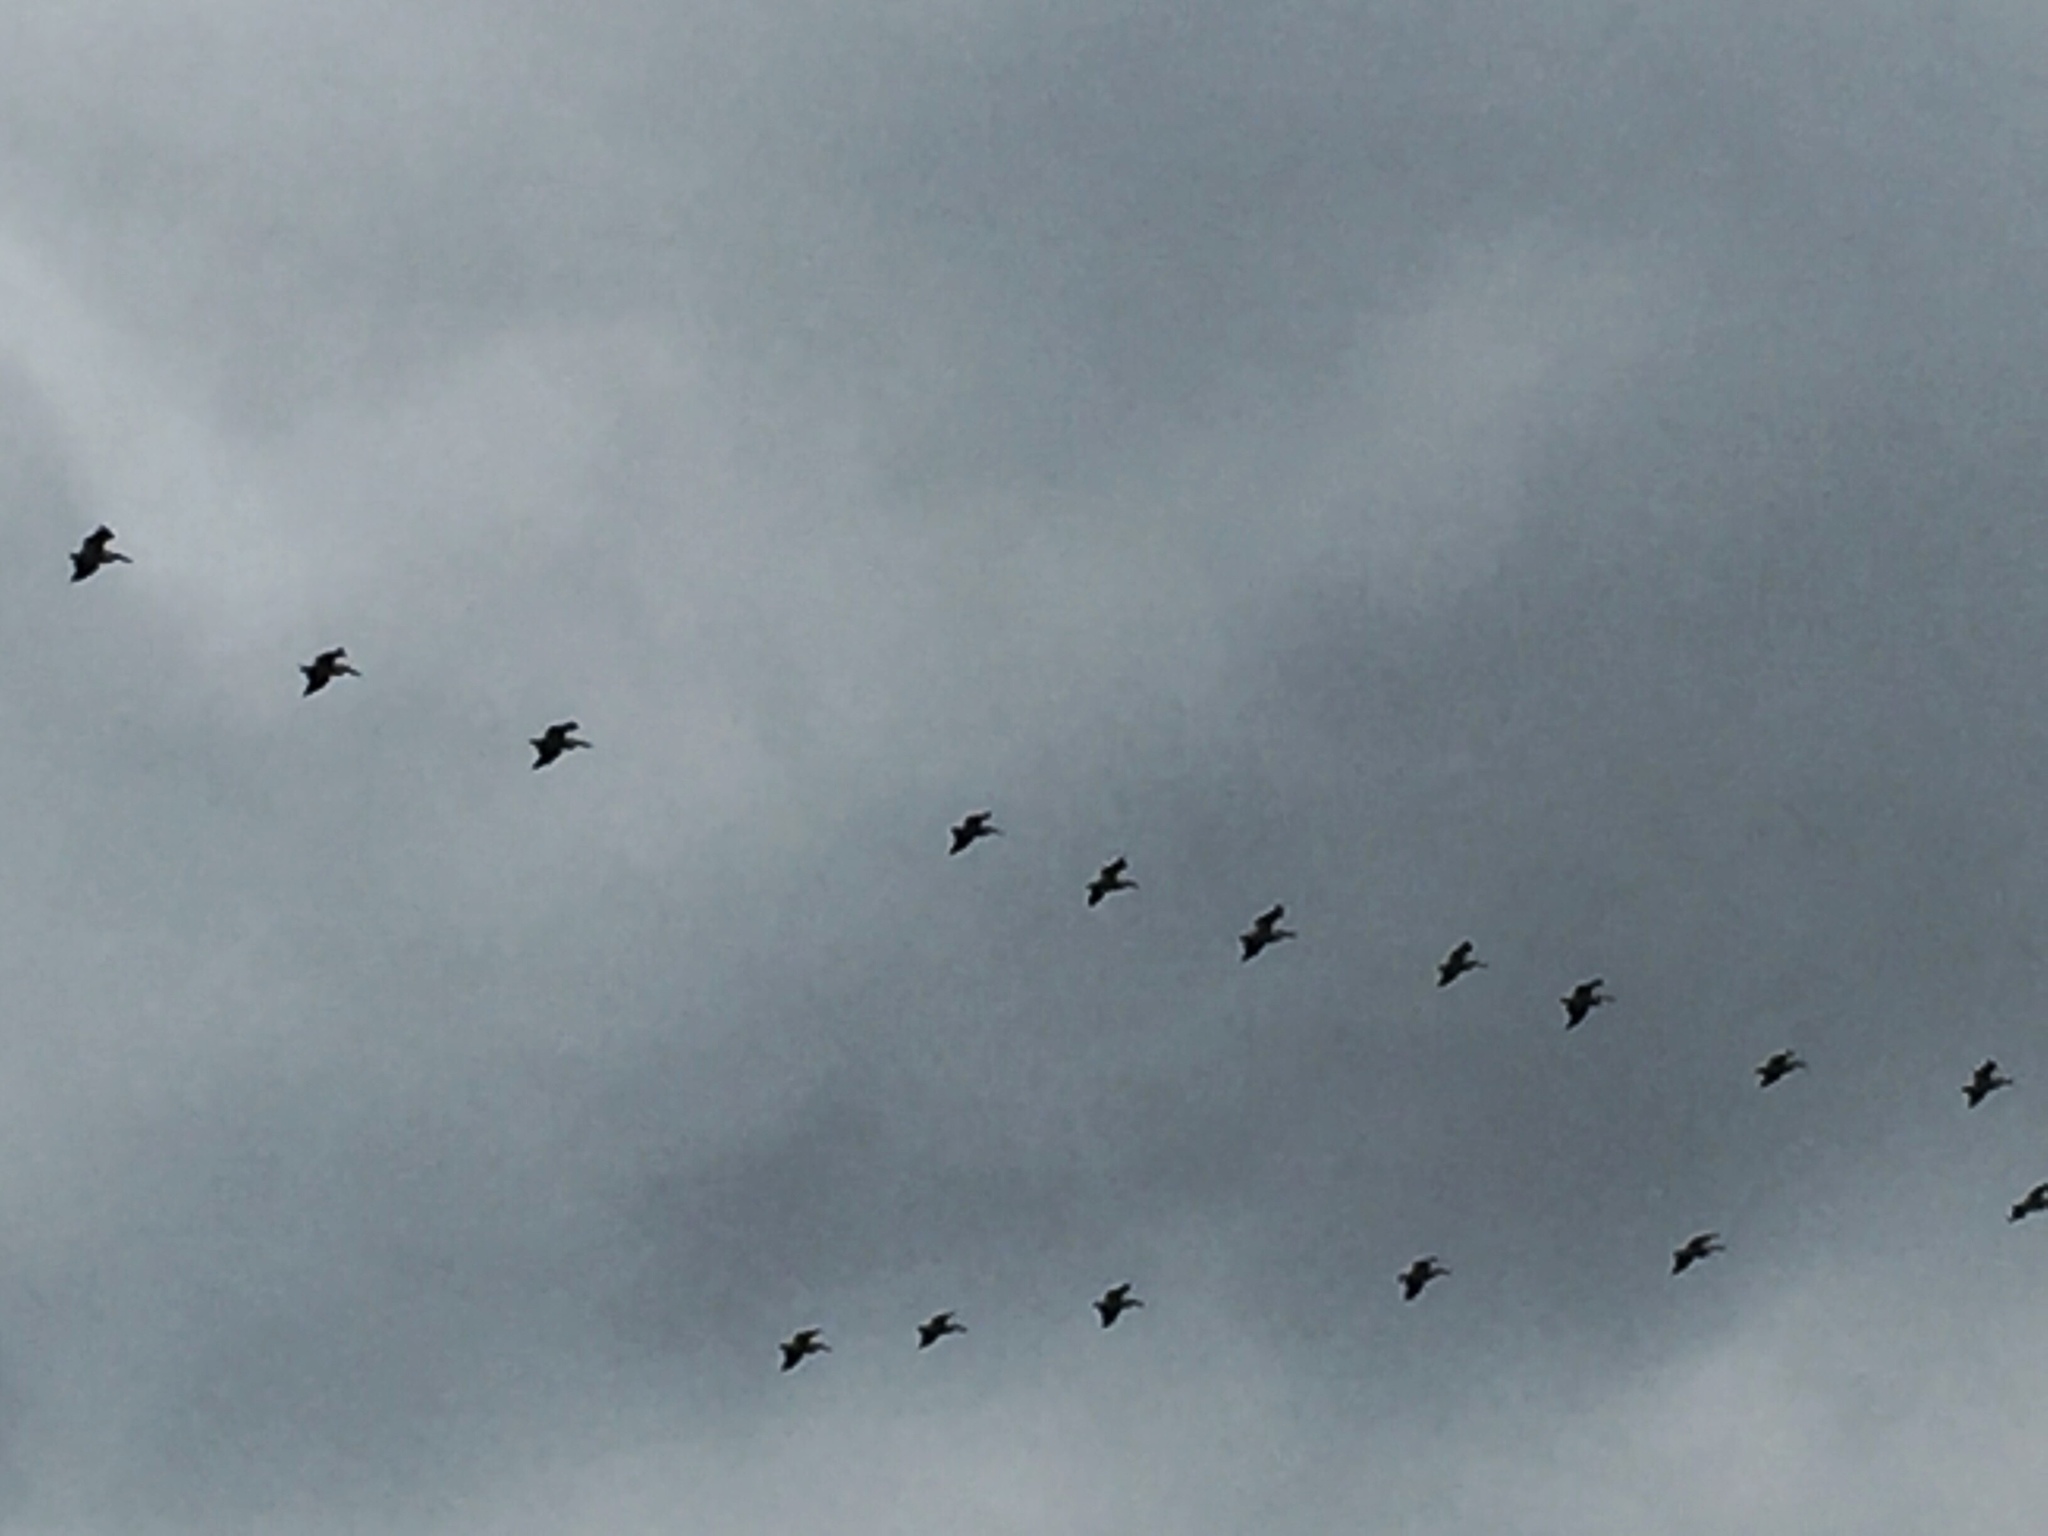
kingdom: Animalia
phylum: Chordata
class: Aves
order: Pelecaniformes
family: Pelecanidae
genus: Pelecanus
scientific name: Pelecanus erythrorhynchos
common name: American white pelican
